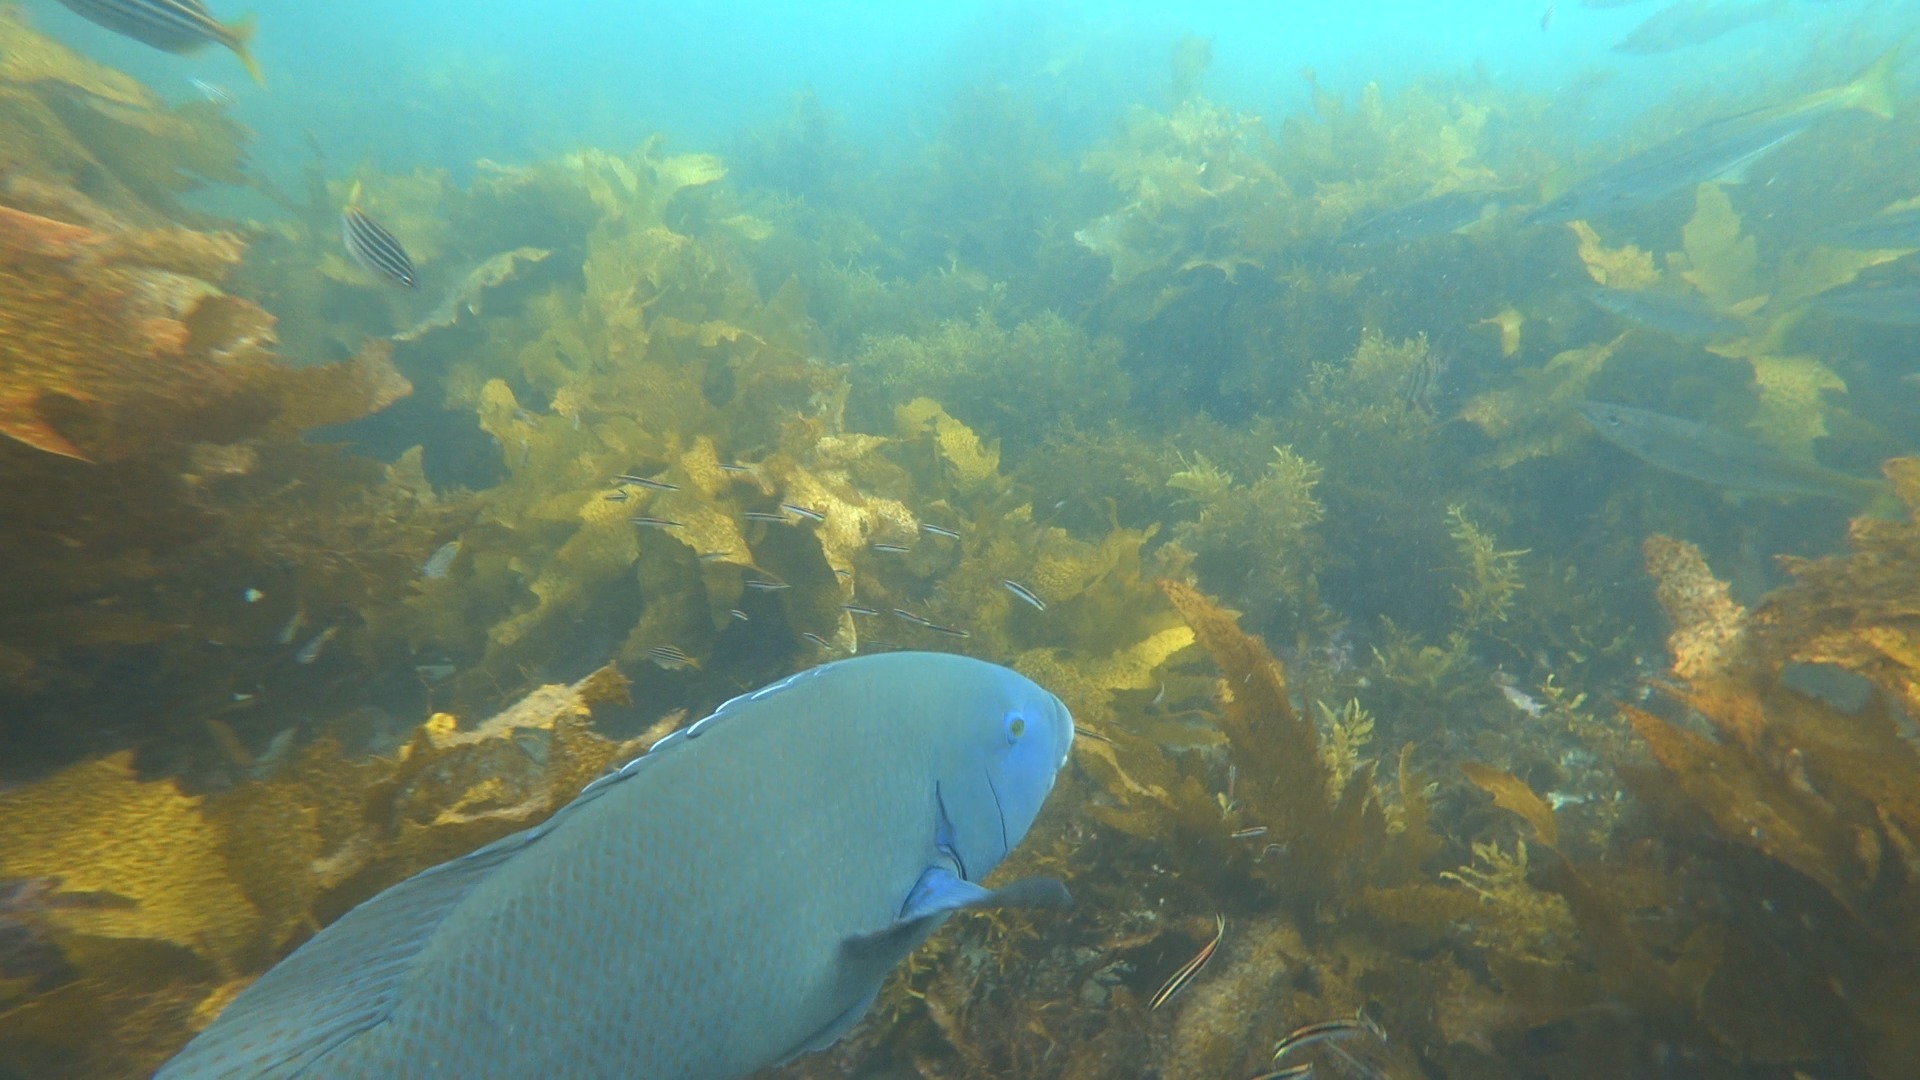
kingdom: Animalia
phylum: Chordata
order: Perciformes
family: Labridae
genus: Achoerodus
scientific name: Achoerodus viridis
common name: Brown groper
